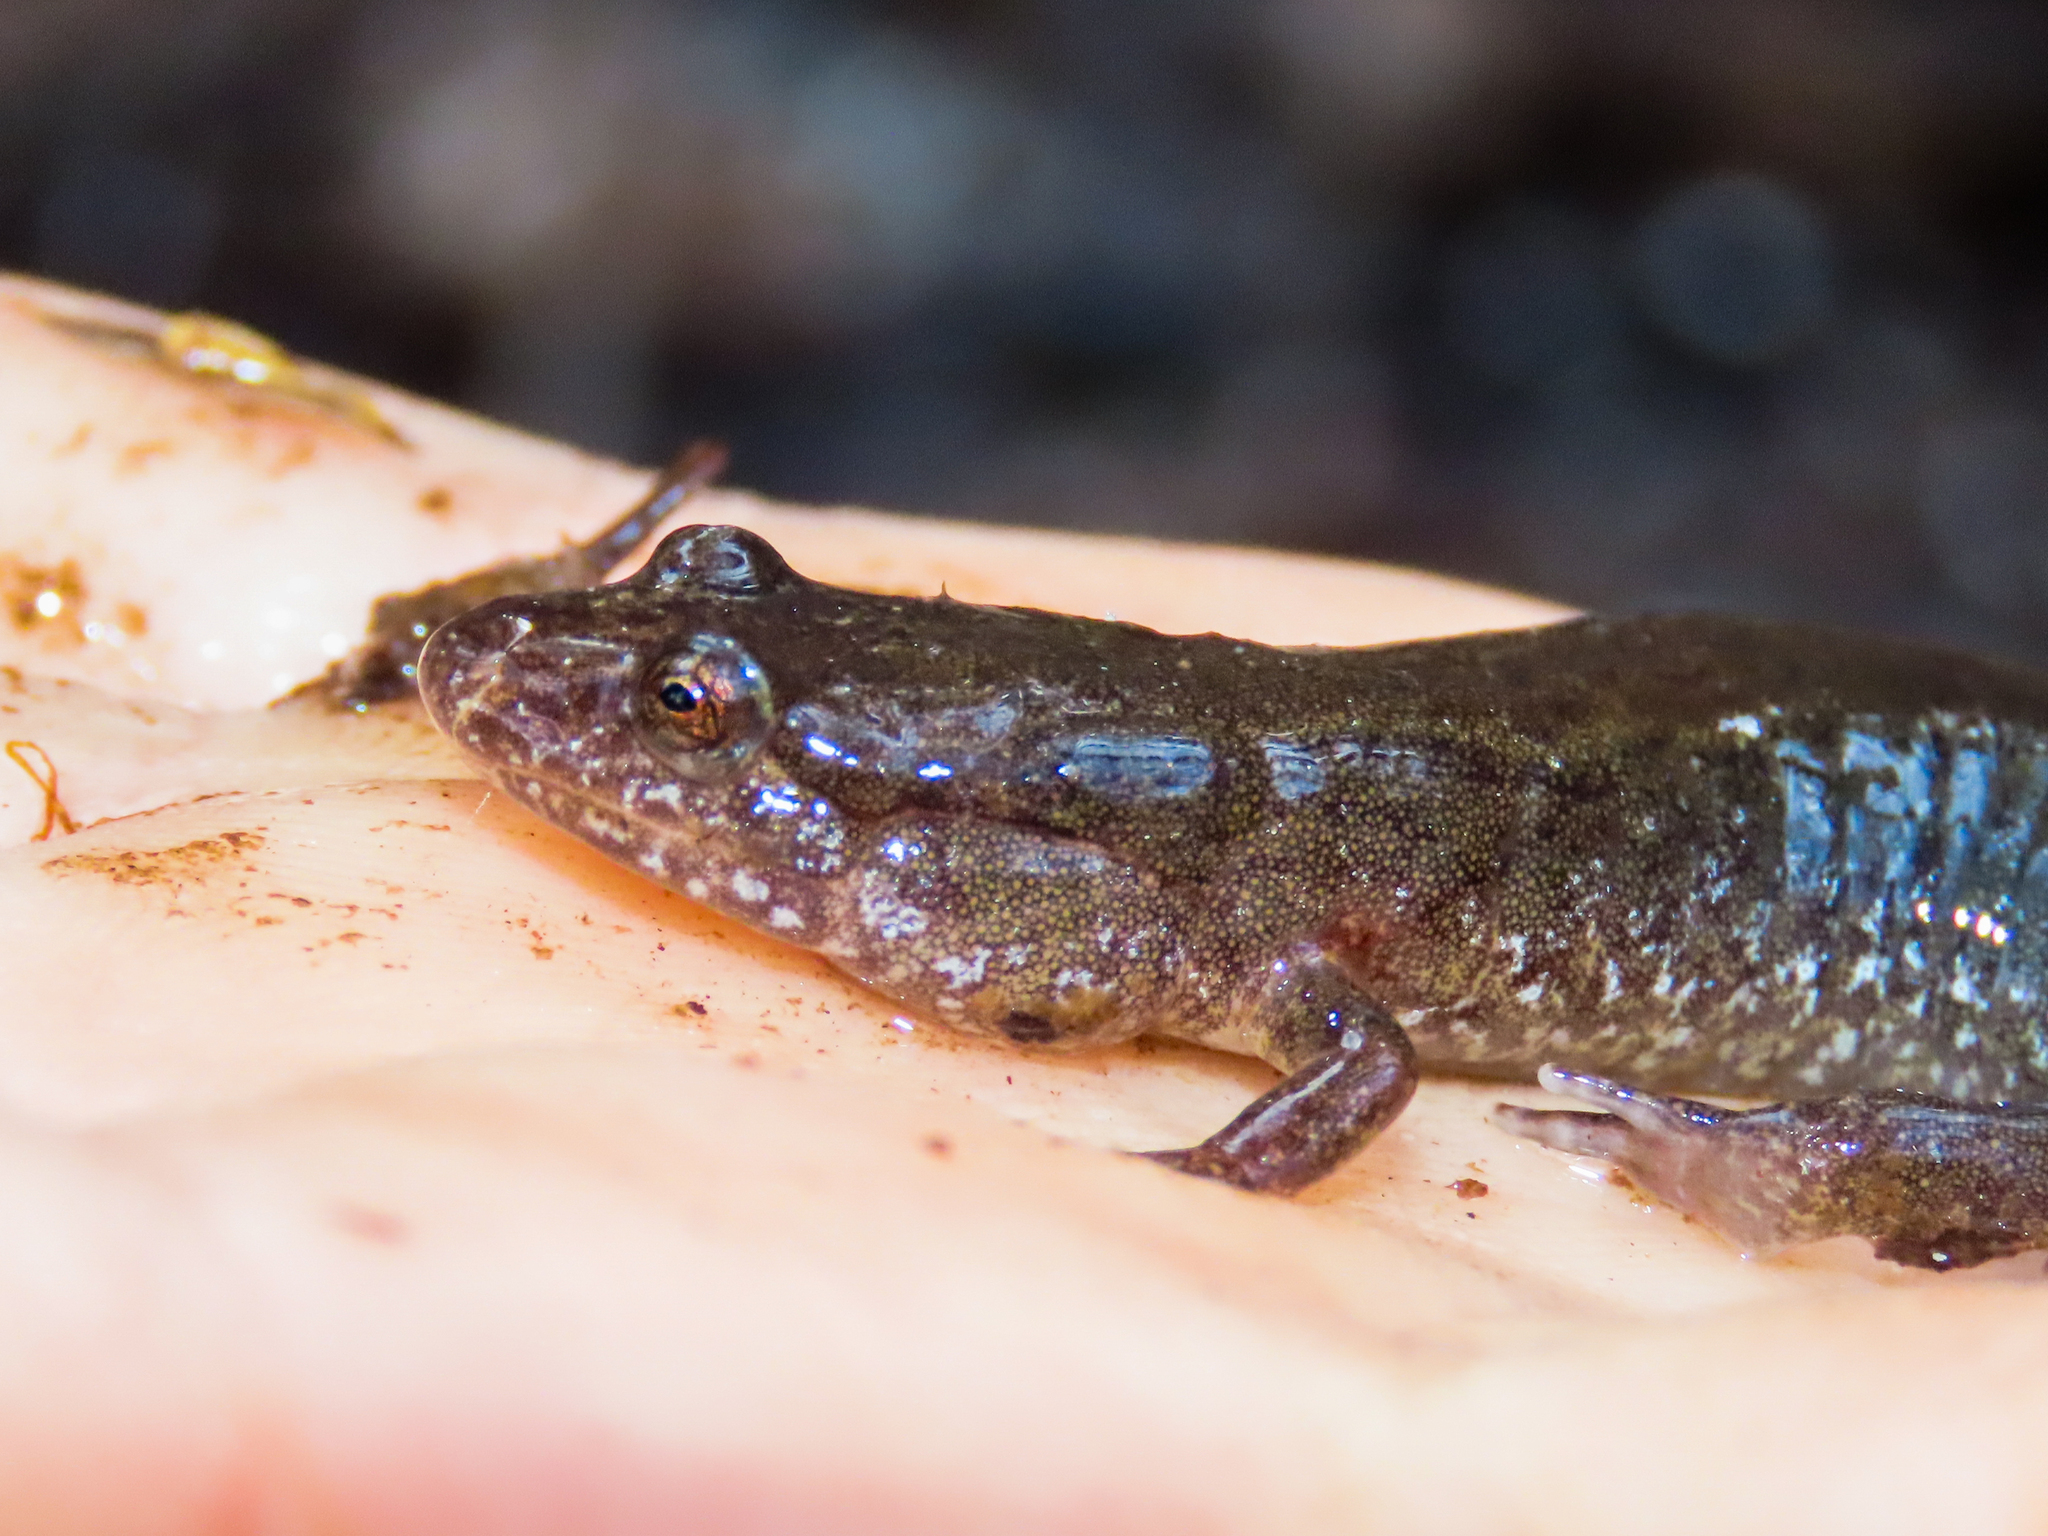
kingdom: Animalia
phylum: Chordata
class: Amphibia
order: Caudata
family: Plethodontidae
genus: Desmognathus
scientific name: Desmognathus fuscus
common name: Northern dusky salamander
